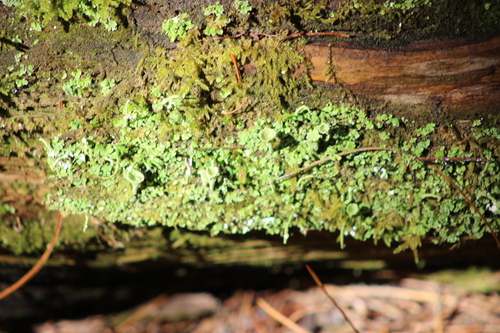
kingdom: Fungi
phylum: Ascomycota
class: Lecanoromycetes
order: Lecanorales
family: Cladoniaceae
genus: Cladonia
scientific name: Cladonia
